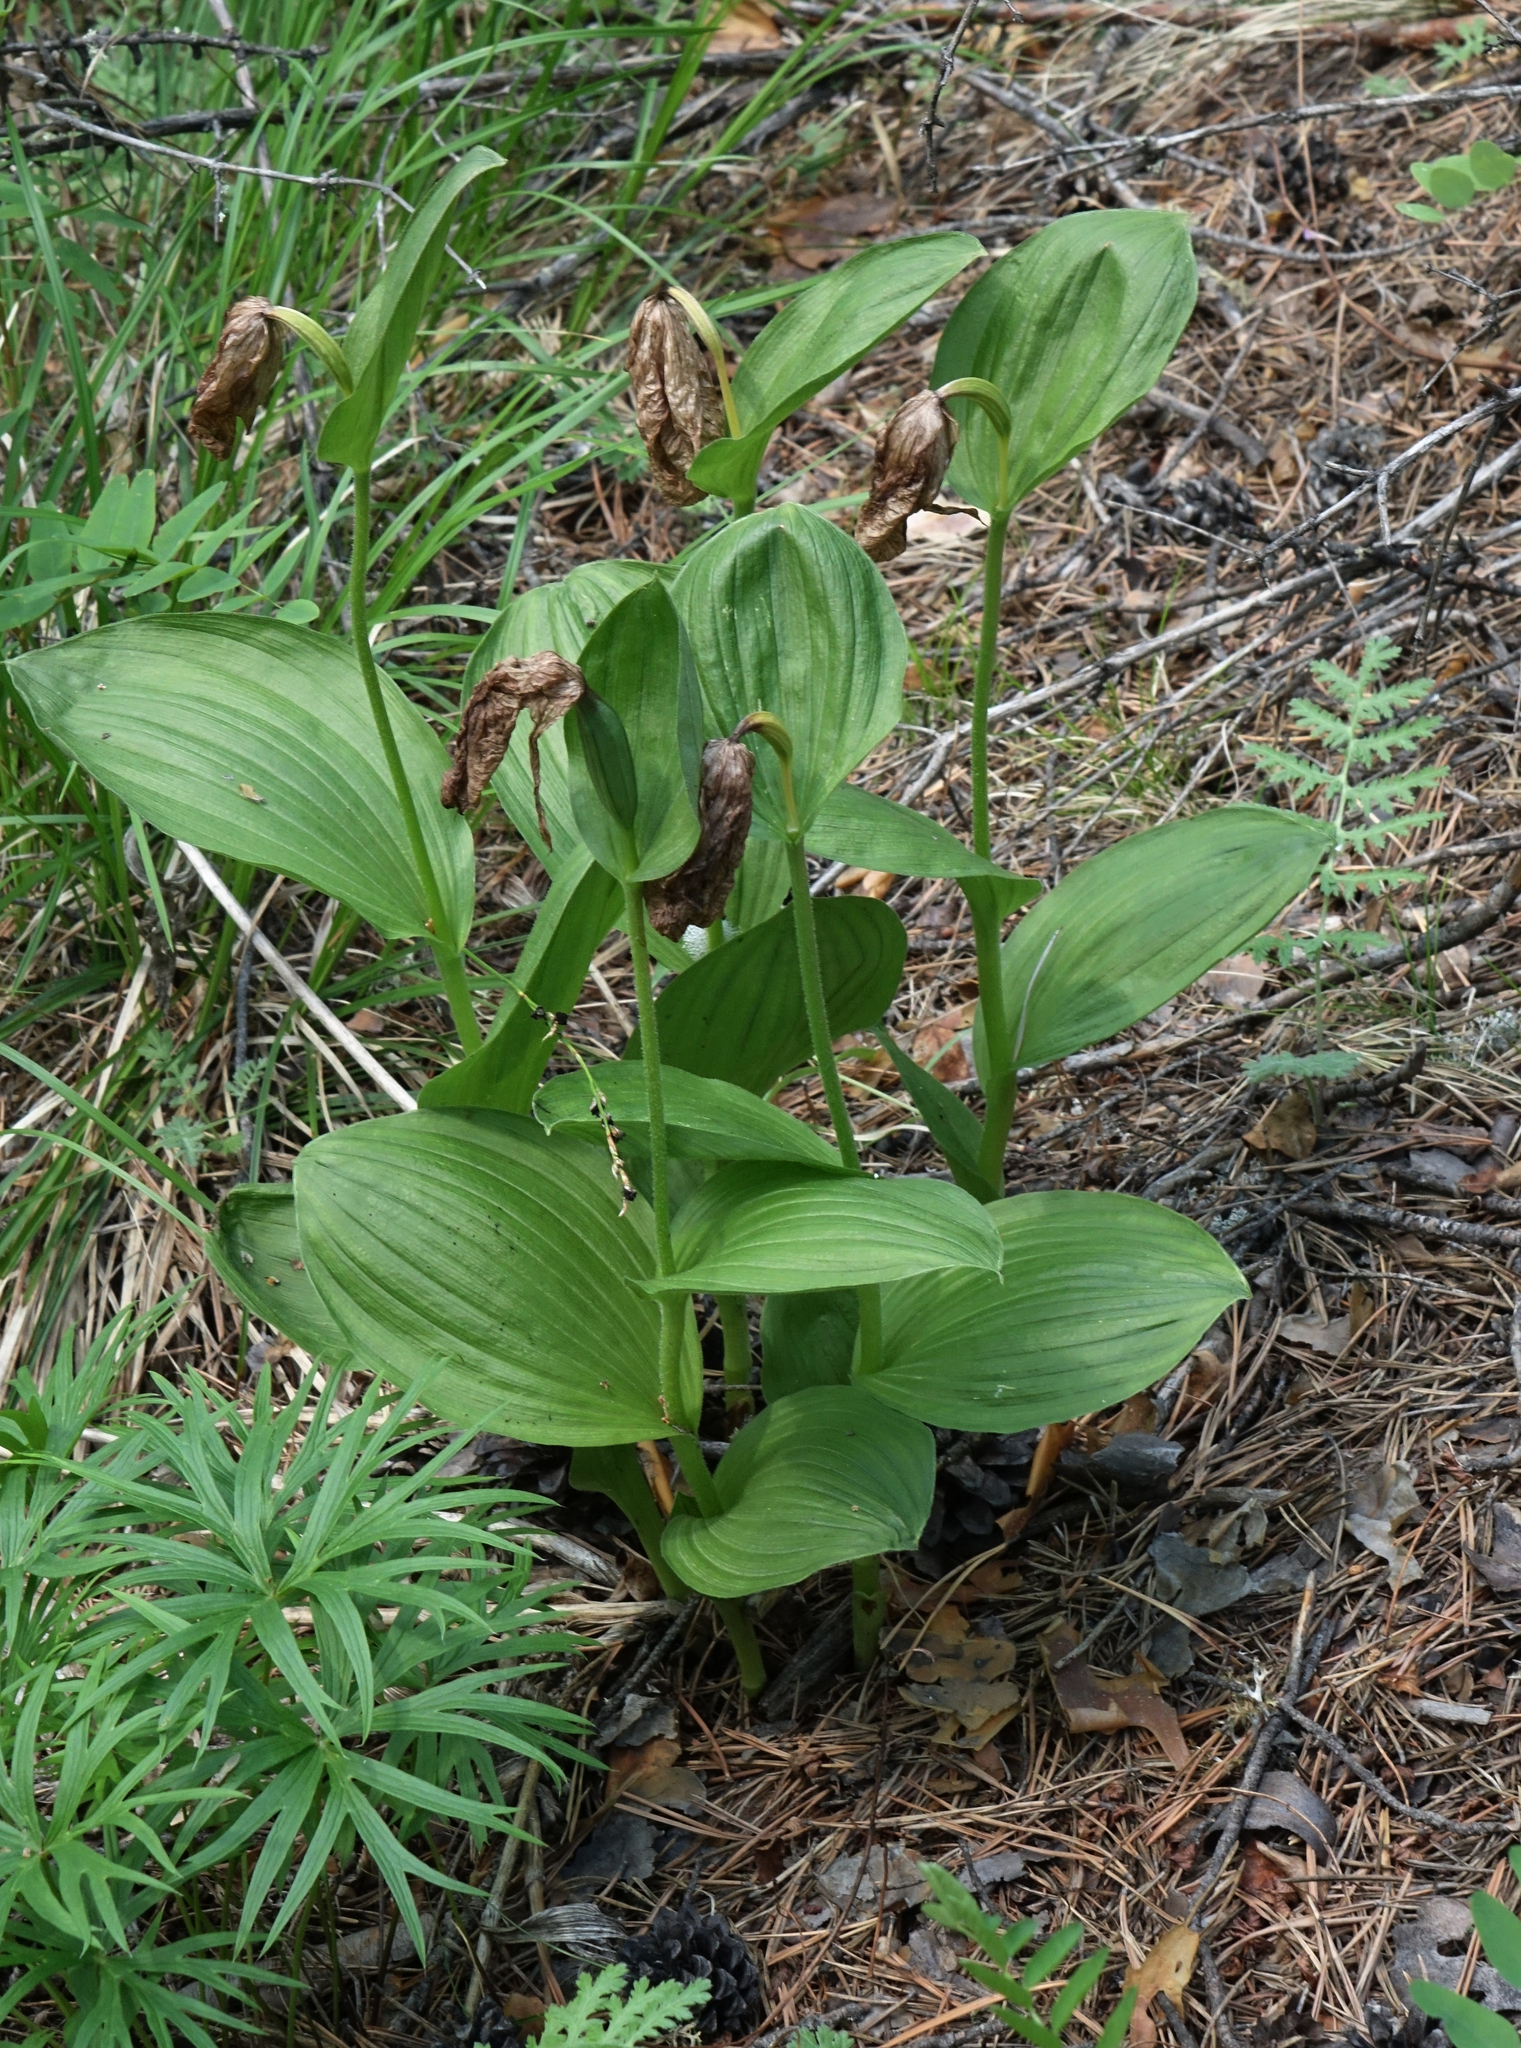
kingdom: Plantae
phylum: Tracheophyta
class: Liliopsida
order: Asparagales
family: Orchidaceae
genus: Cypripedium
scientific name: Cypripedium macranthos
